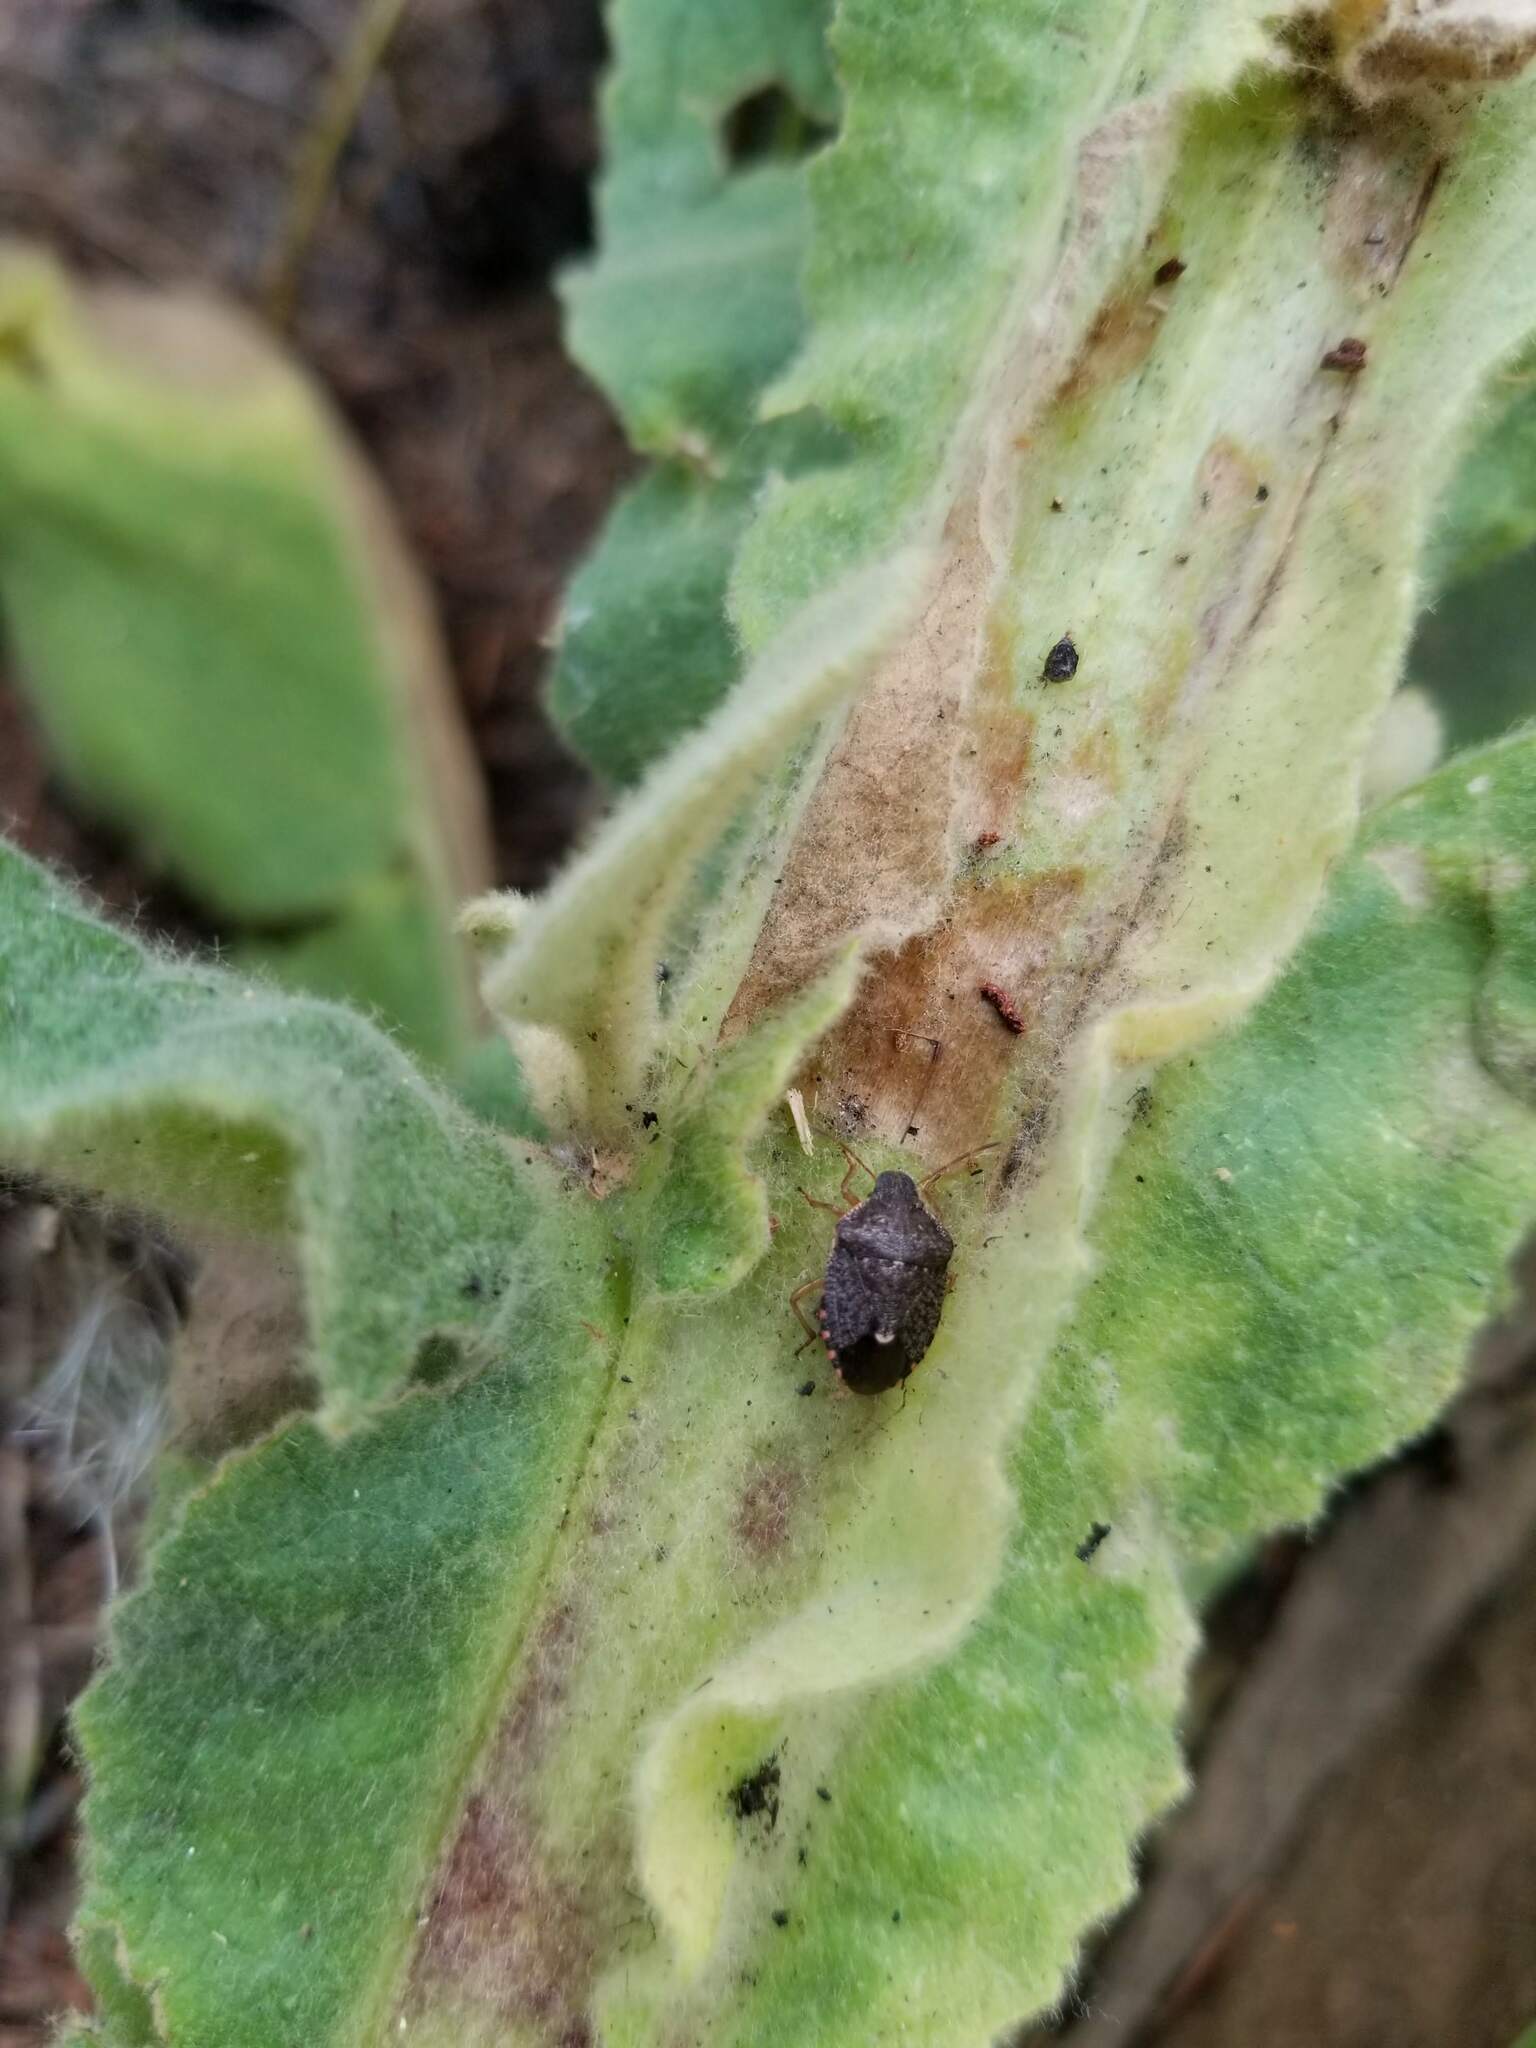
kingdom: Animalia
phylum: Arthropoda
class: Insecta
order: Hemiptera
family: Pentatomidae
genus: Holcostethus
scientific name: Holcostethus abbreviatus
